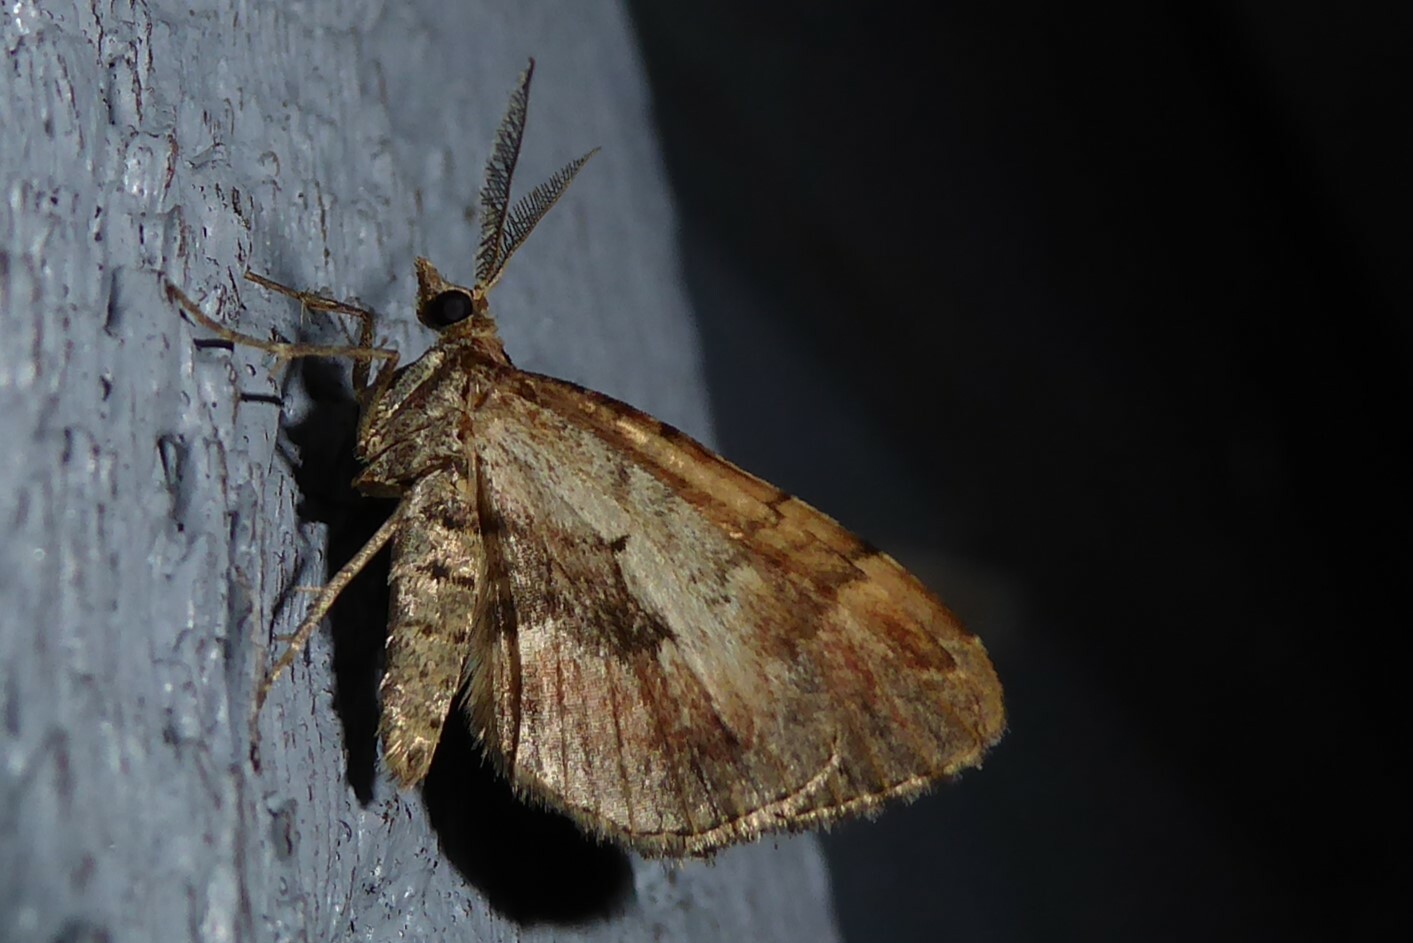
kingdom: Animalia
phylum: Arthropoda
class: Insecta
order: Lepidoptera
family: Geometridae
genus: Asaphodes
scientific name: Asaphodes aegrota
